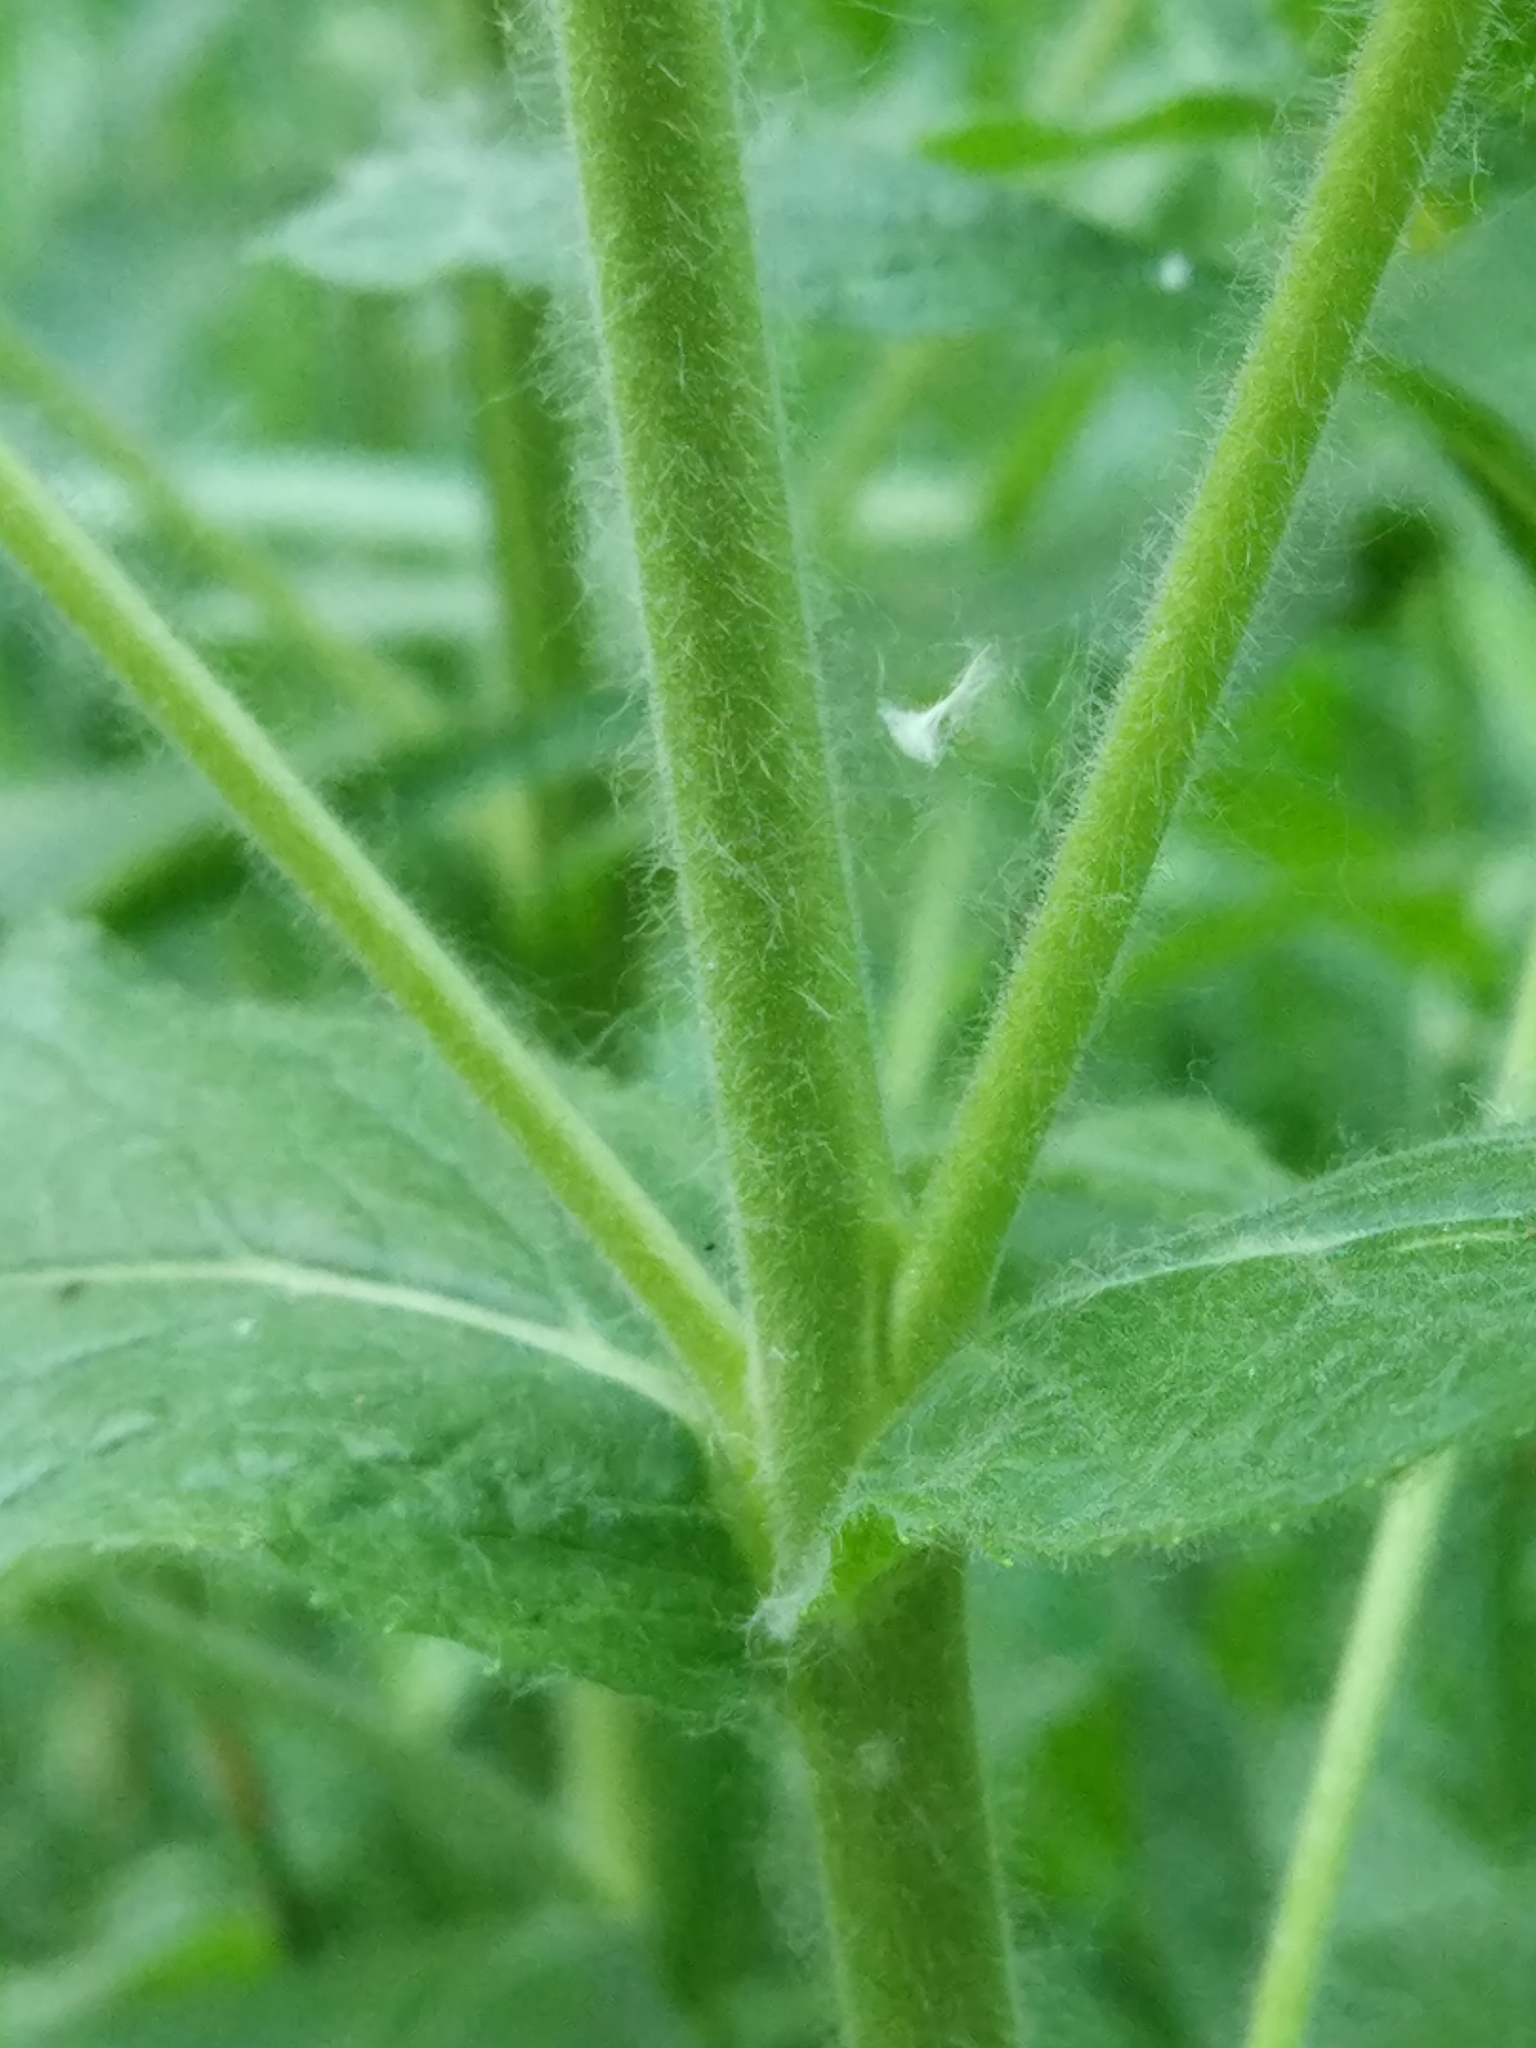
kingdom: Plantae
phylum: Tracheophyta
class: Magnoliopsida
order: Myrtales
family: Onagraceae
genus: Epilobium
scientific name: Epilobium hirsutum
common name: Great willowherb
